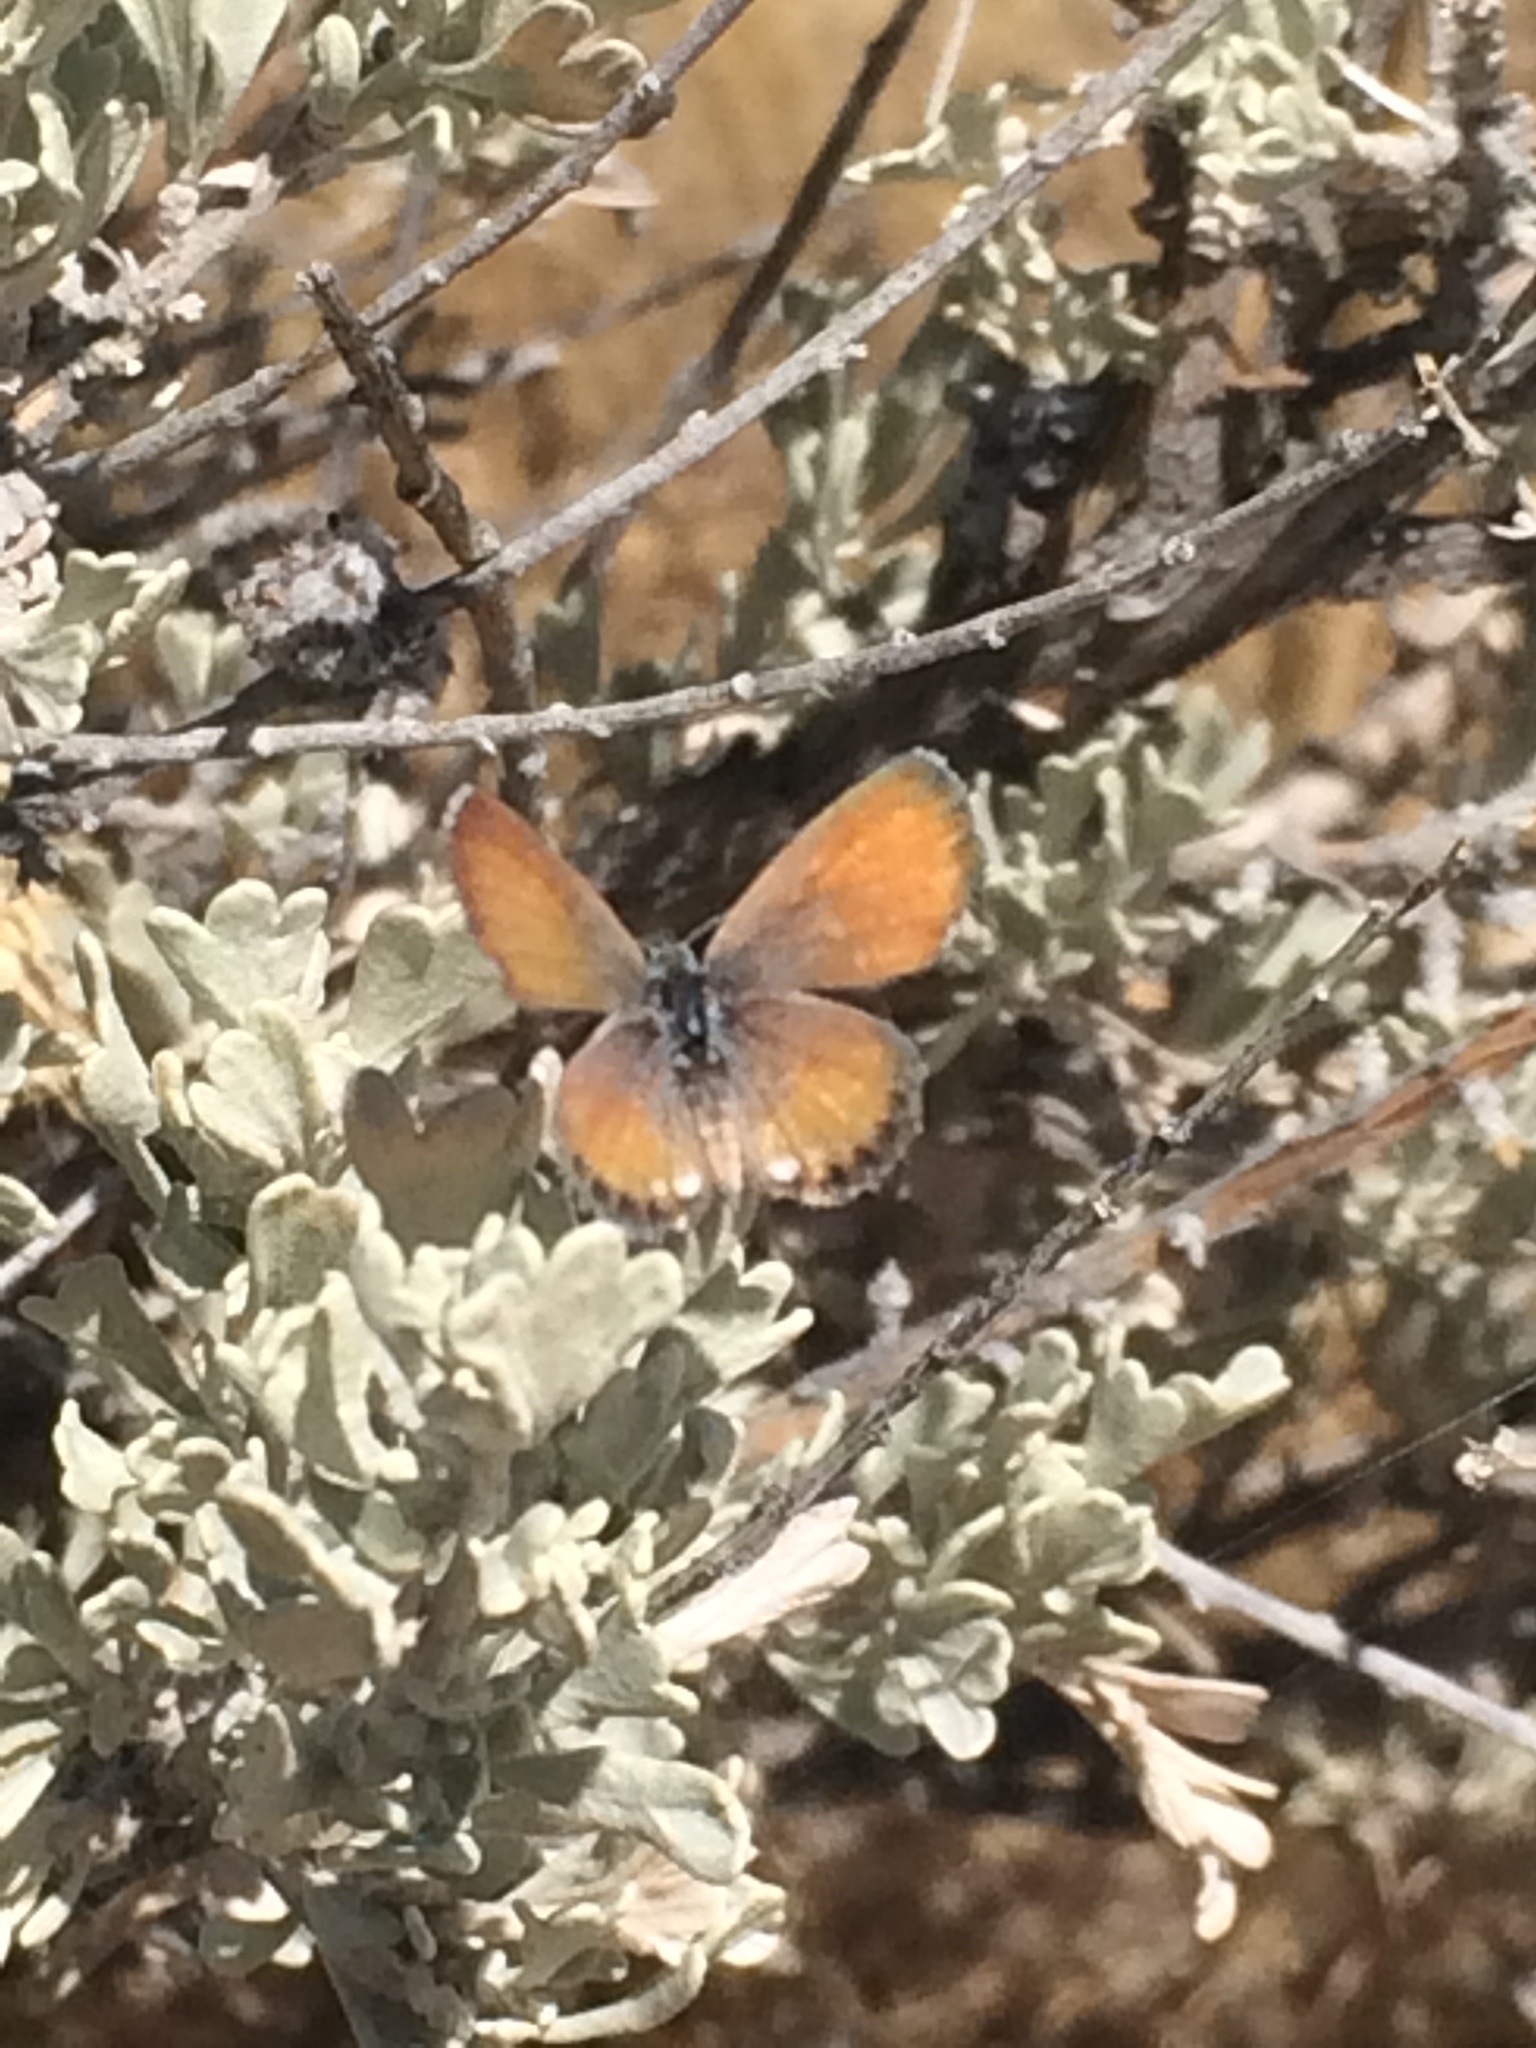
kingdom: Animalia
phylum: Arthropoda
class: Insecta
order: Lepidoptera
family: Lycaenidae
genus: Brephidium
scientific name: Brephidium exilis
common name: Pygmy blue
